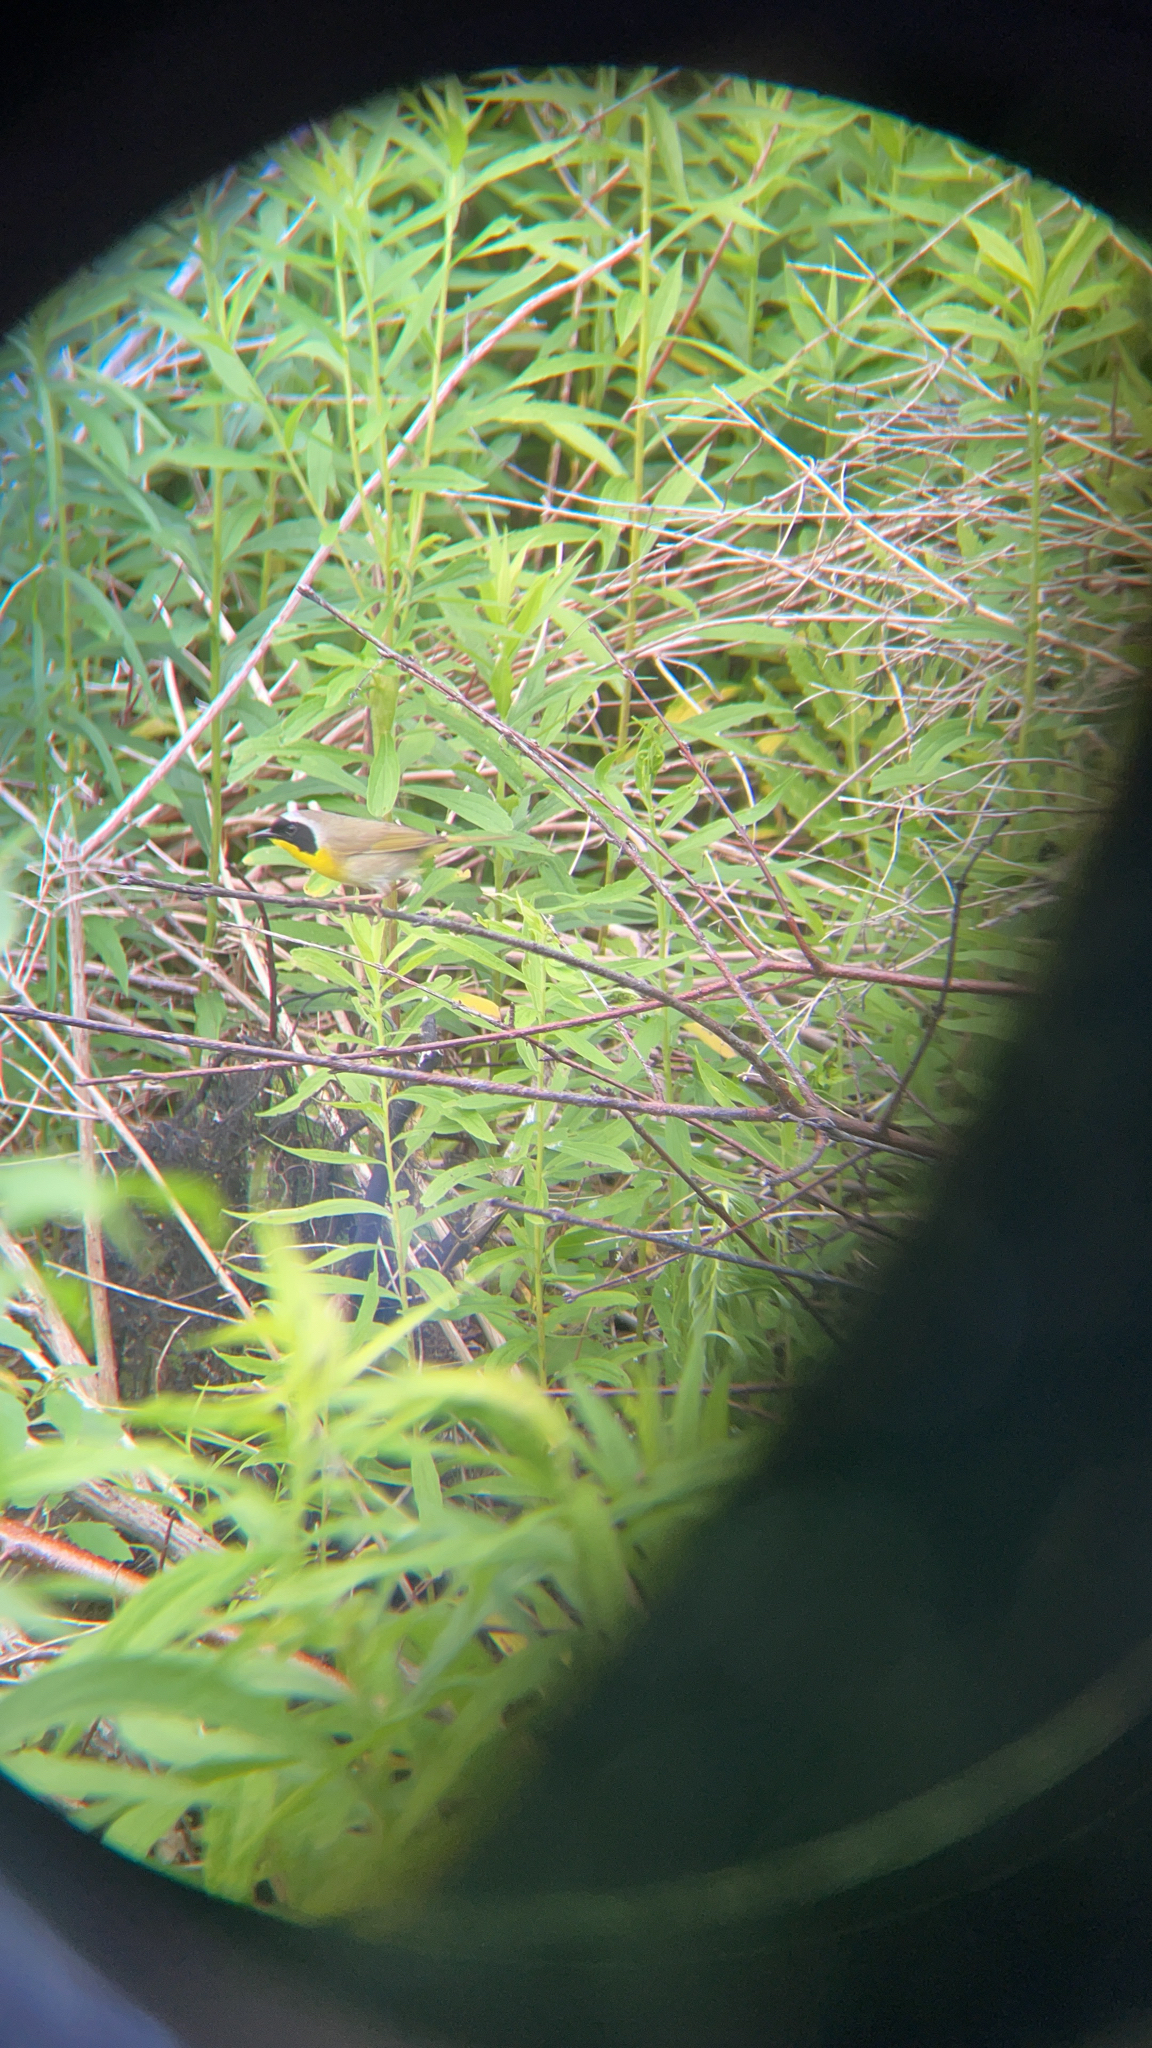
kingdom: Animalia
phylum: Chordata
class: Aves
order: Passeriformes
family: Parulidae
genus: Geothlypis
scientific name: Geothlypis trichas
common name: Common yellowthroat
